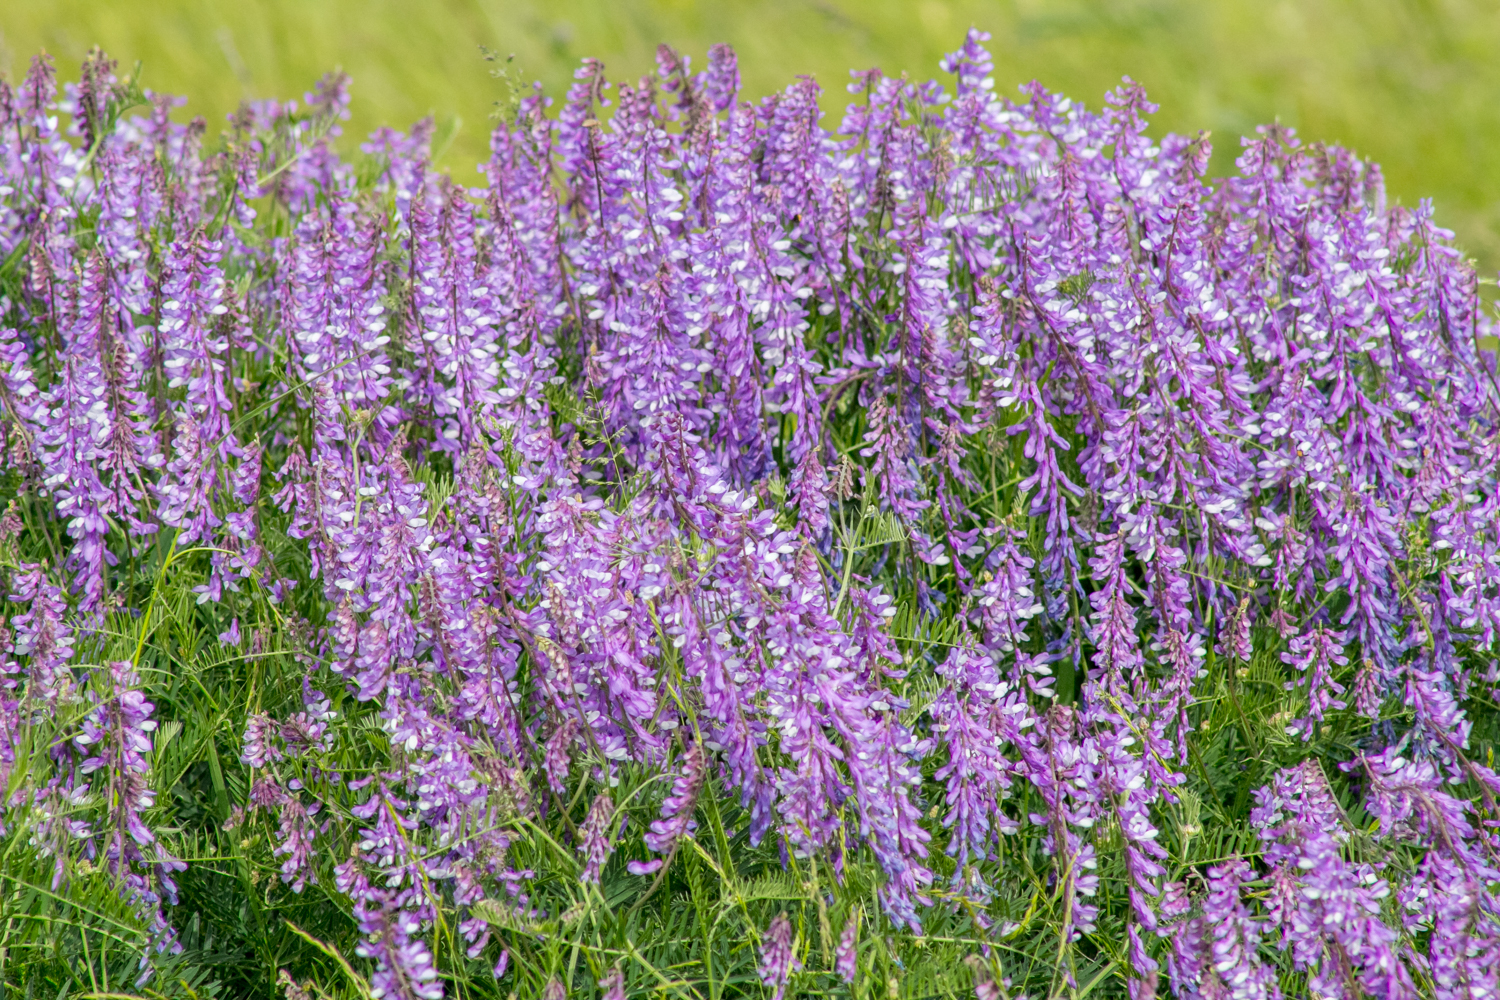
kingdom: Plantae
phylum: Tracheophyta
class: Magnoliopsida
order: Fabales
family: Fabaceae
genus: Vicia
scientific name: Vicia tenuifolia
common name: Fine-leaved vetch
